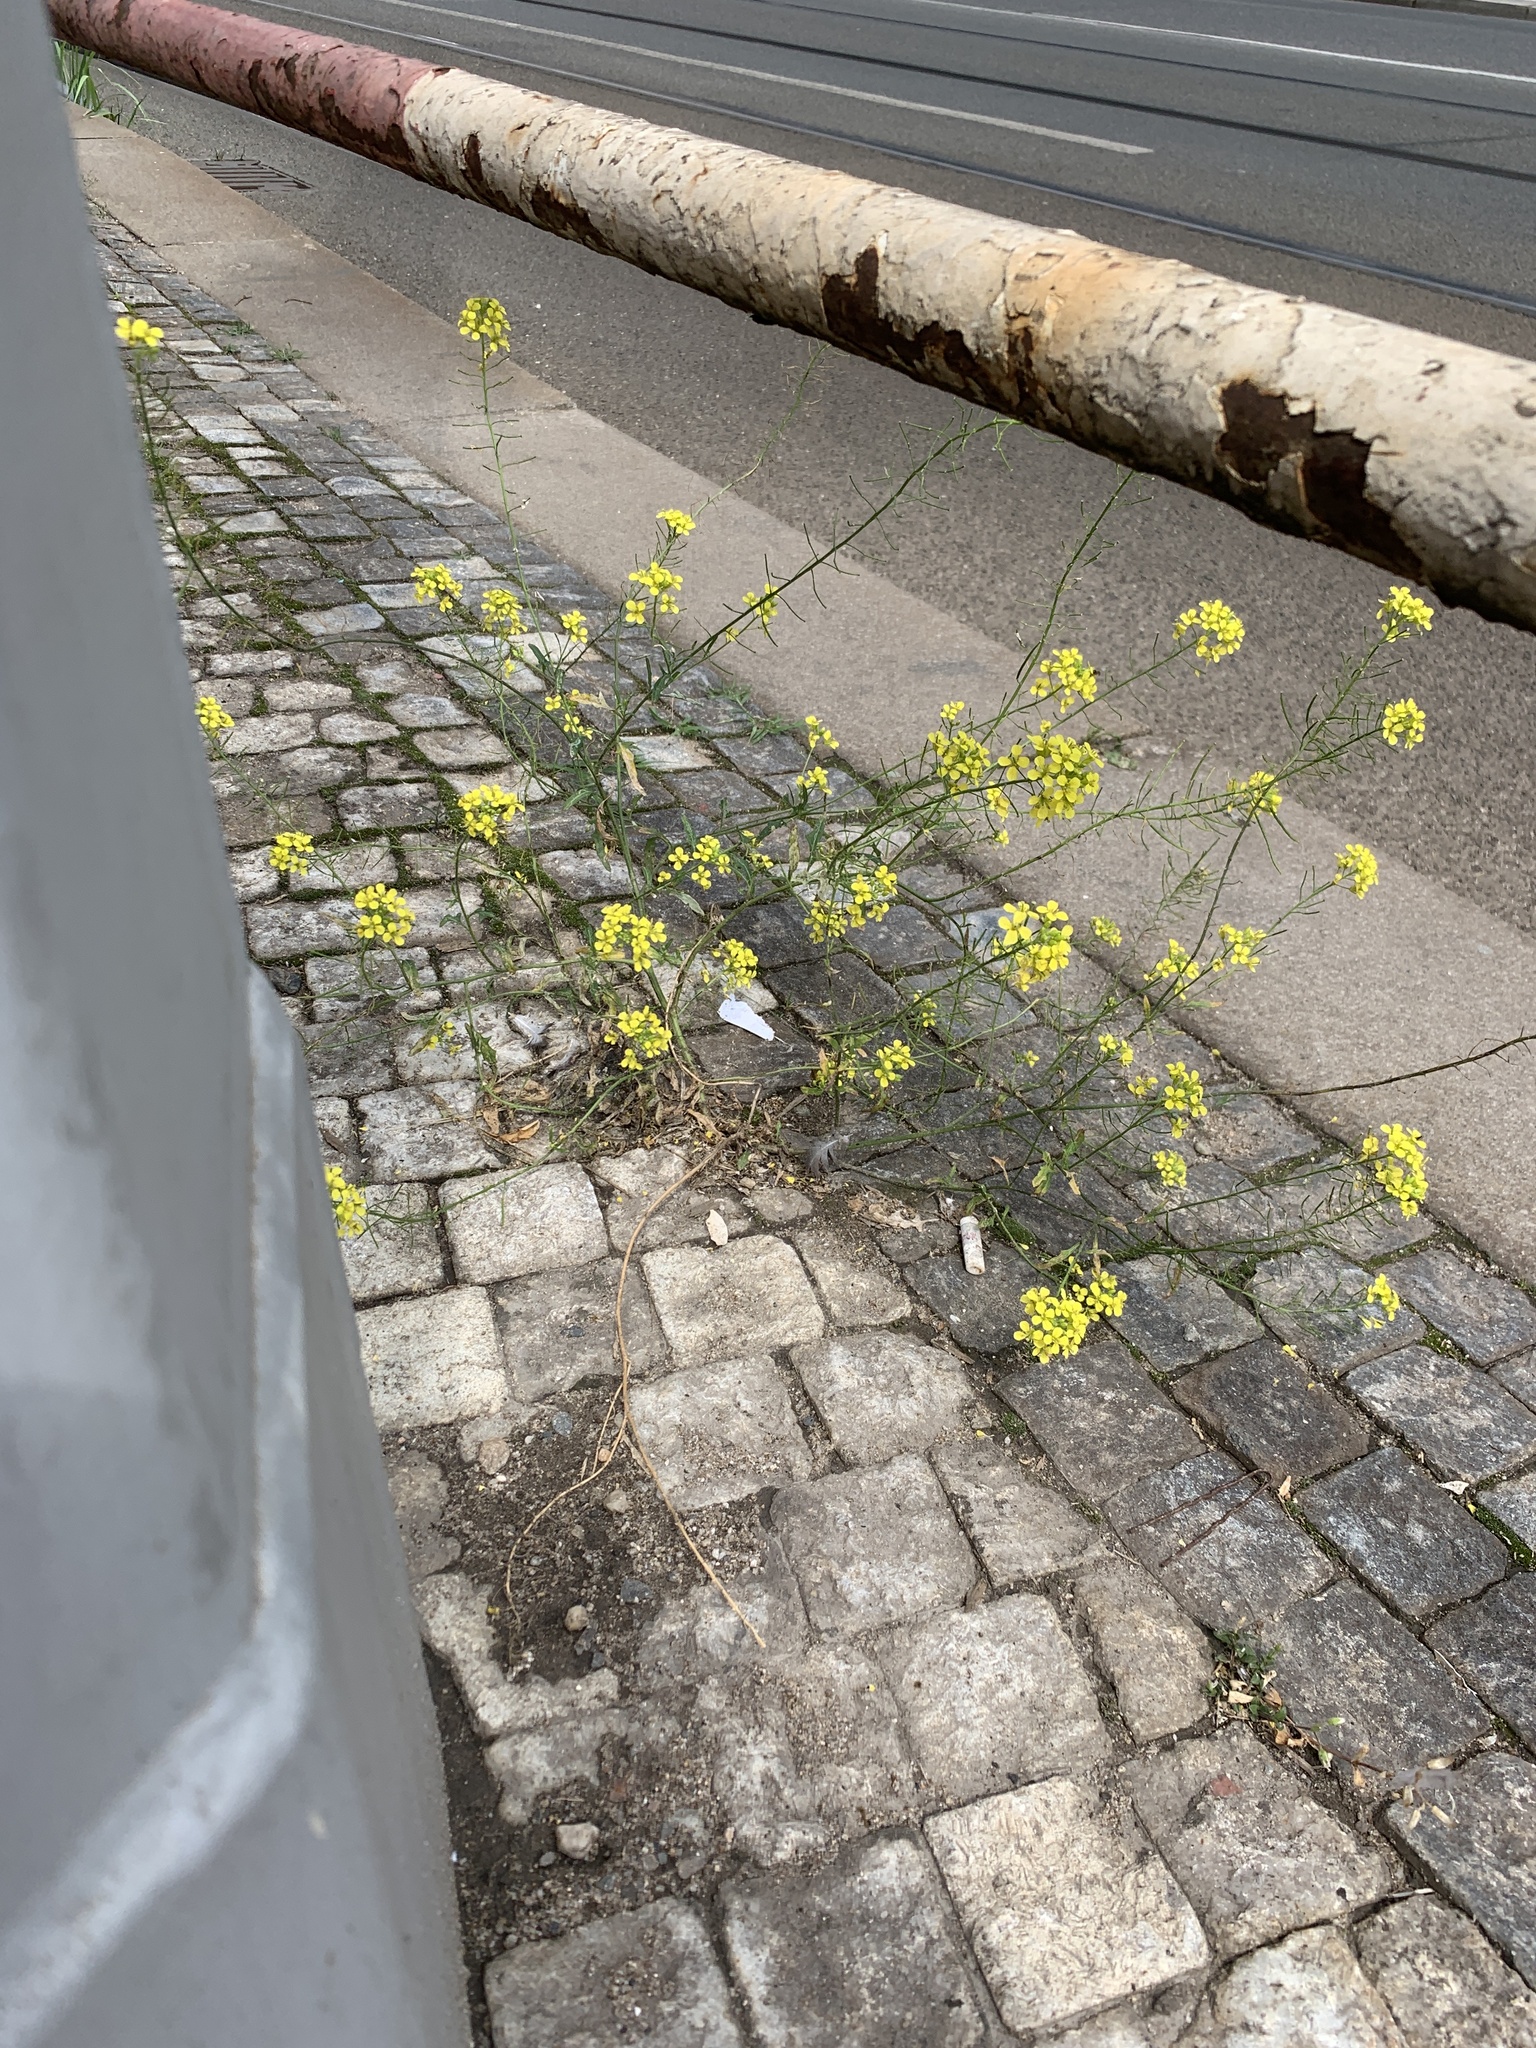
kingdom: Plantae
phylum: Tracheophyta
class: Magnoliopsida
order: Brassicales
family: Brassicaceae
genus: Sisymbrium
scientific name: Sisymbrium loeselii
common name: False london-rocket
